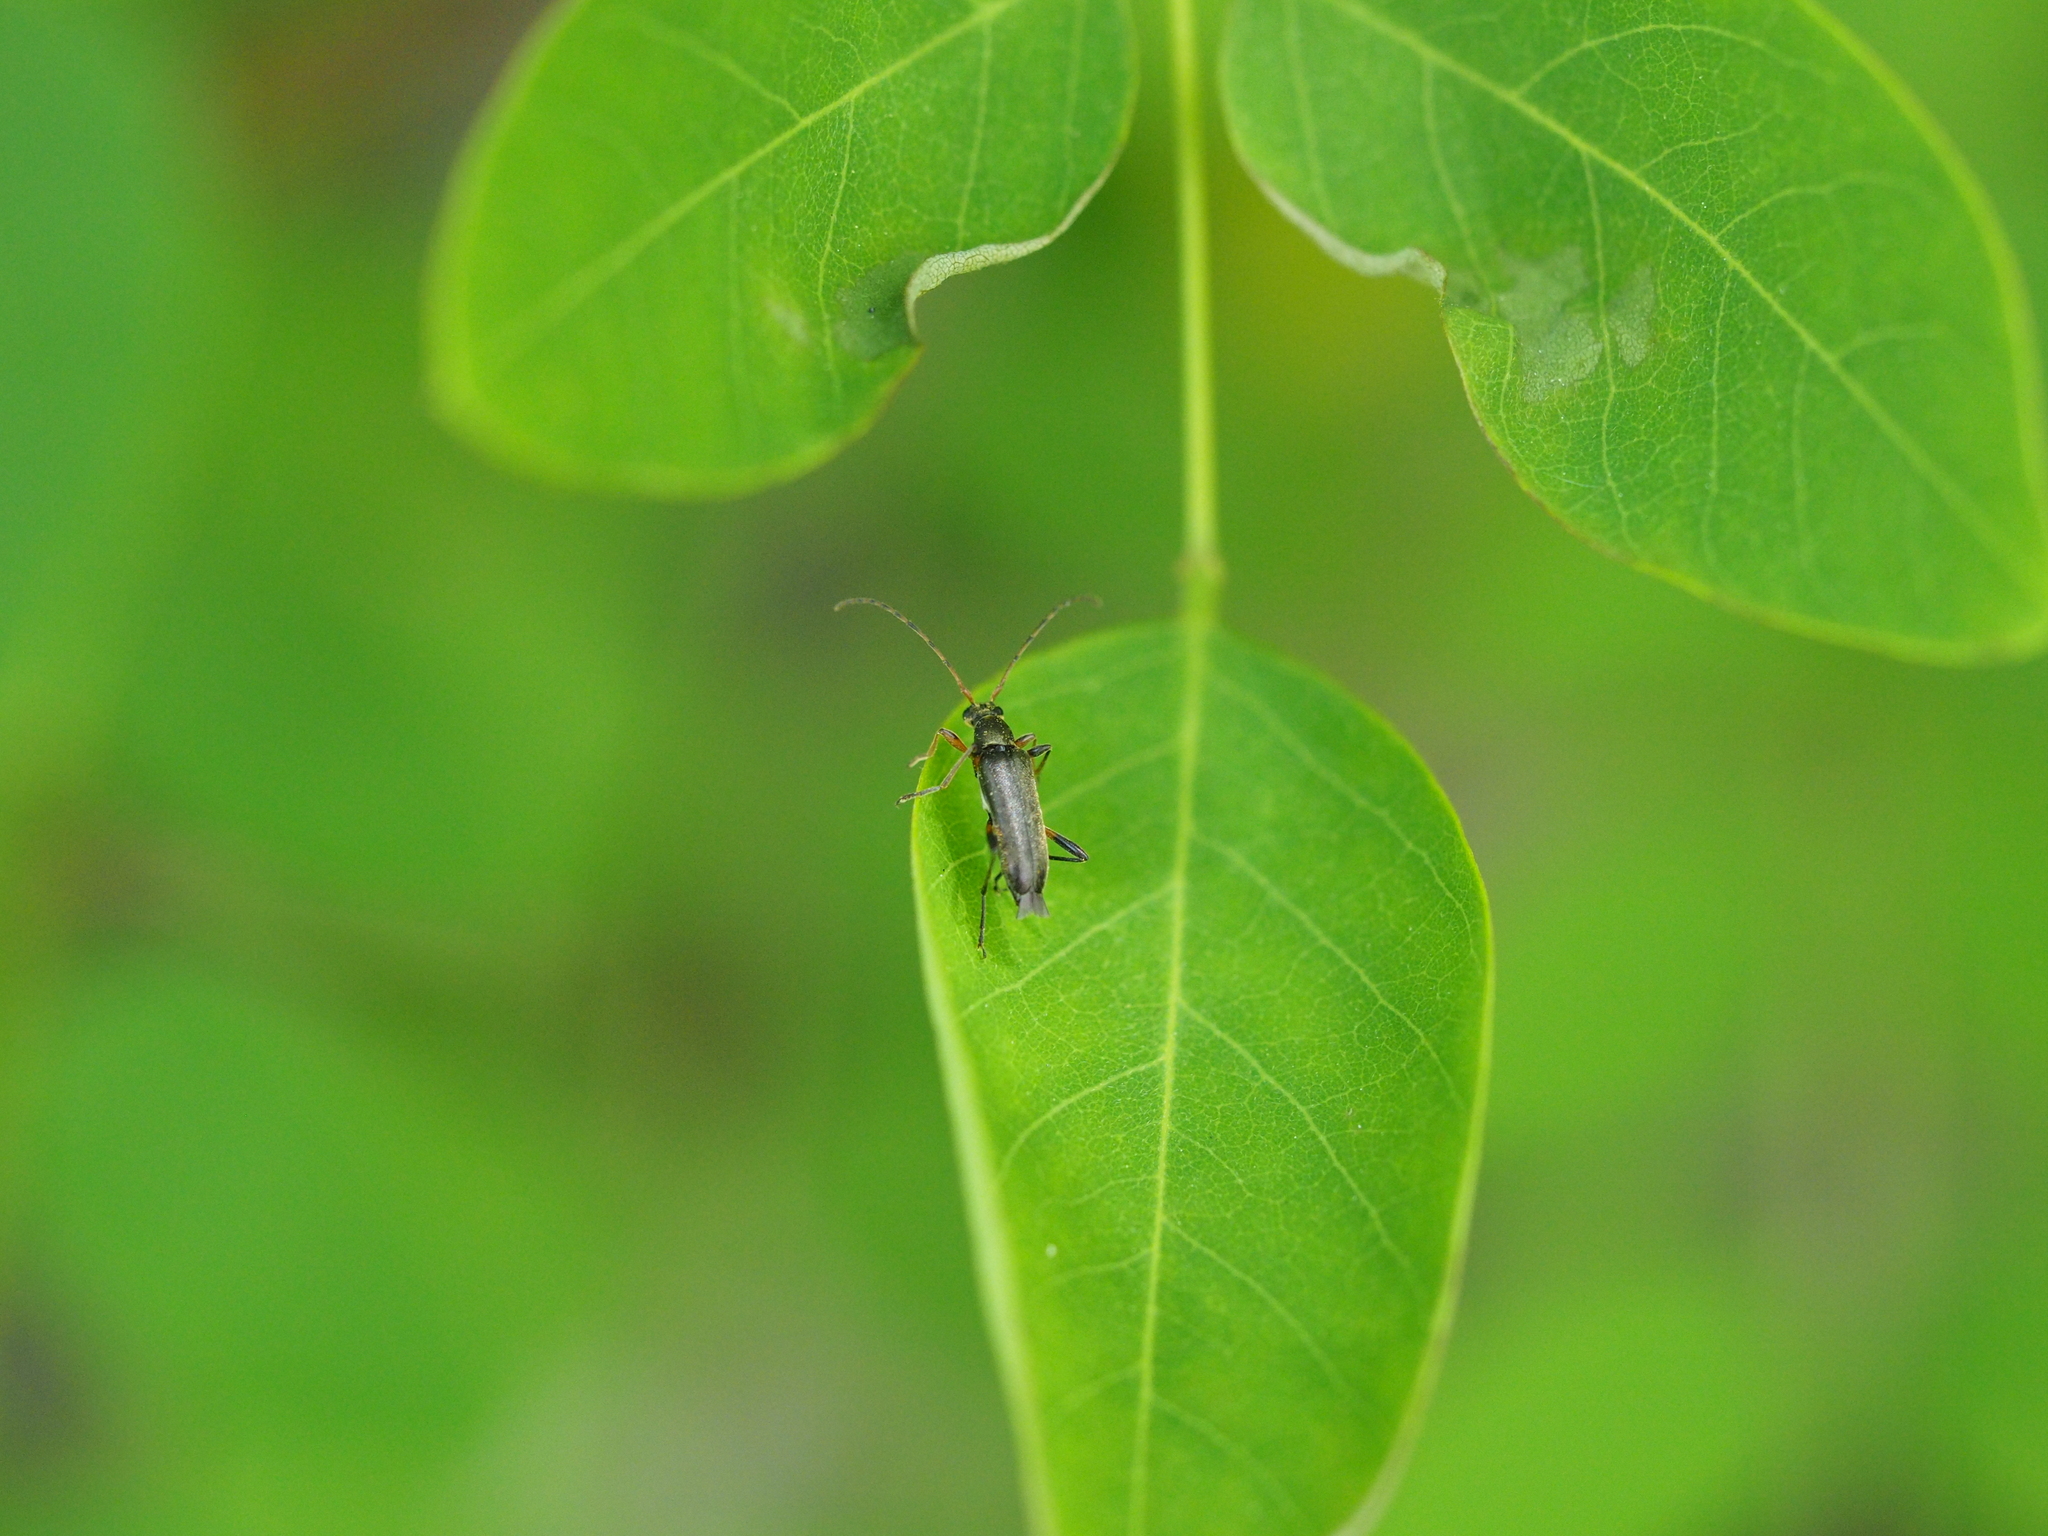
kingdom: Animalia
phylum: Arthropoda
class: Insecta
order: Coleoptera
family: Cerambycidae
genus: Grammoptera
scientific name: Grammoptera ruficornis
